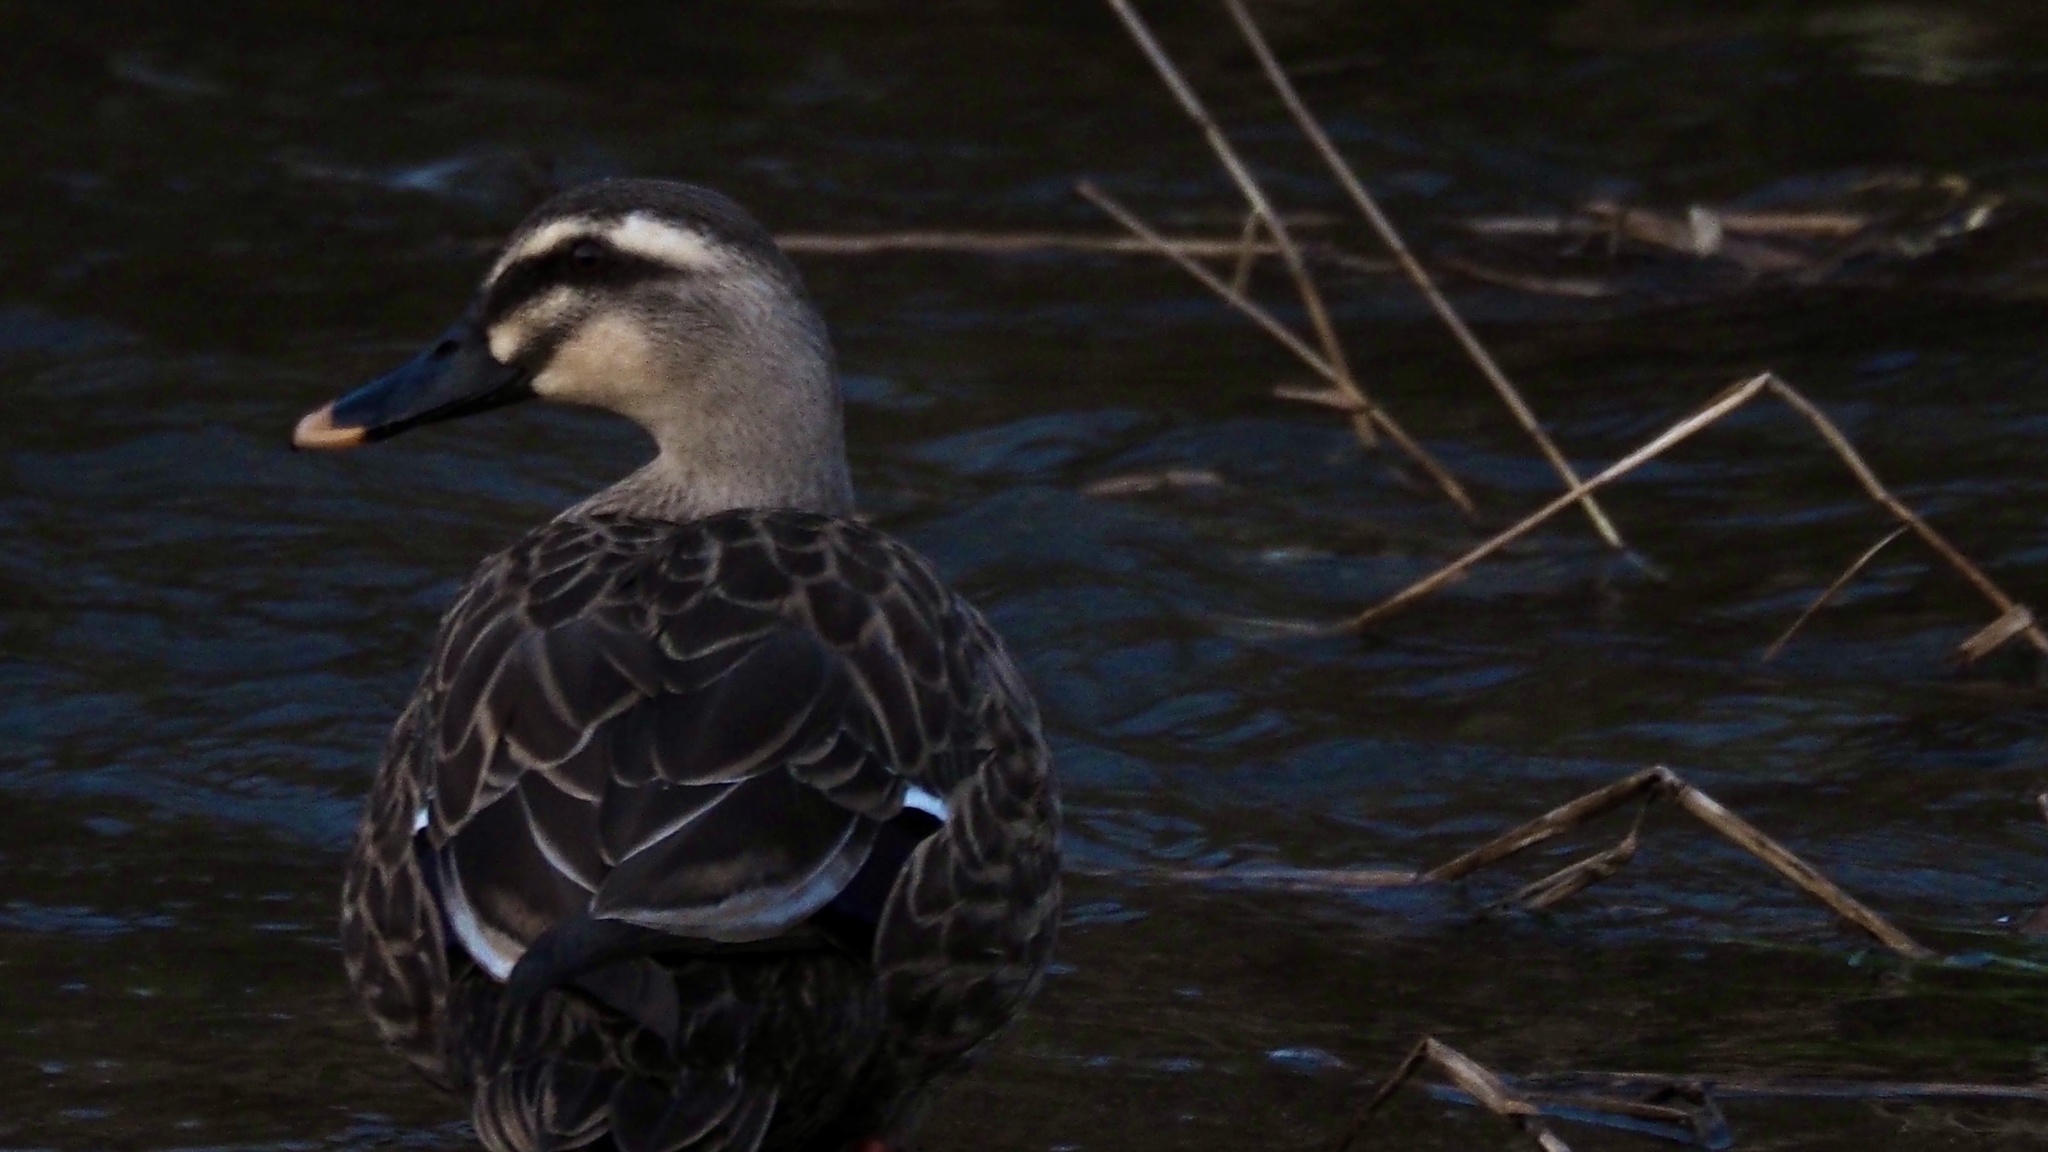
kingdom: Animalia
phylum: Chordata
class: Aves
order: Anseriformes
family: Anatidae
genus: Anas
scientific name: Anas zonorhyncha
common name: Eastern spot-billed duck
